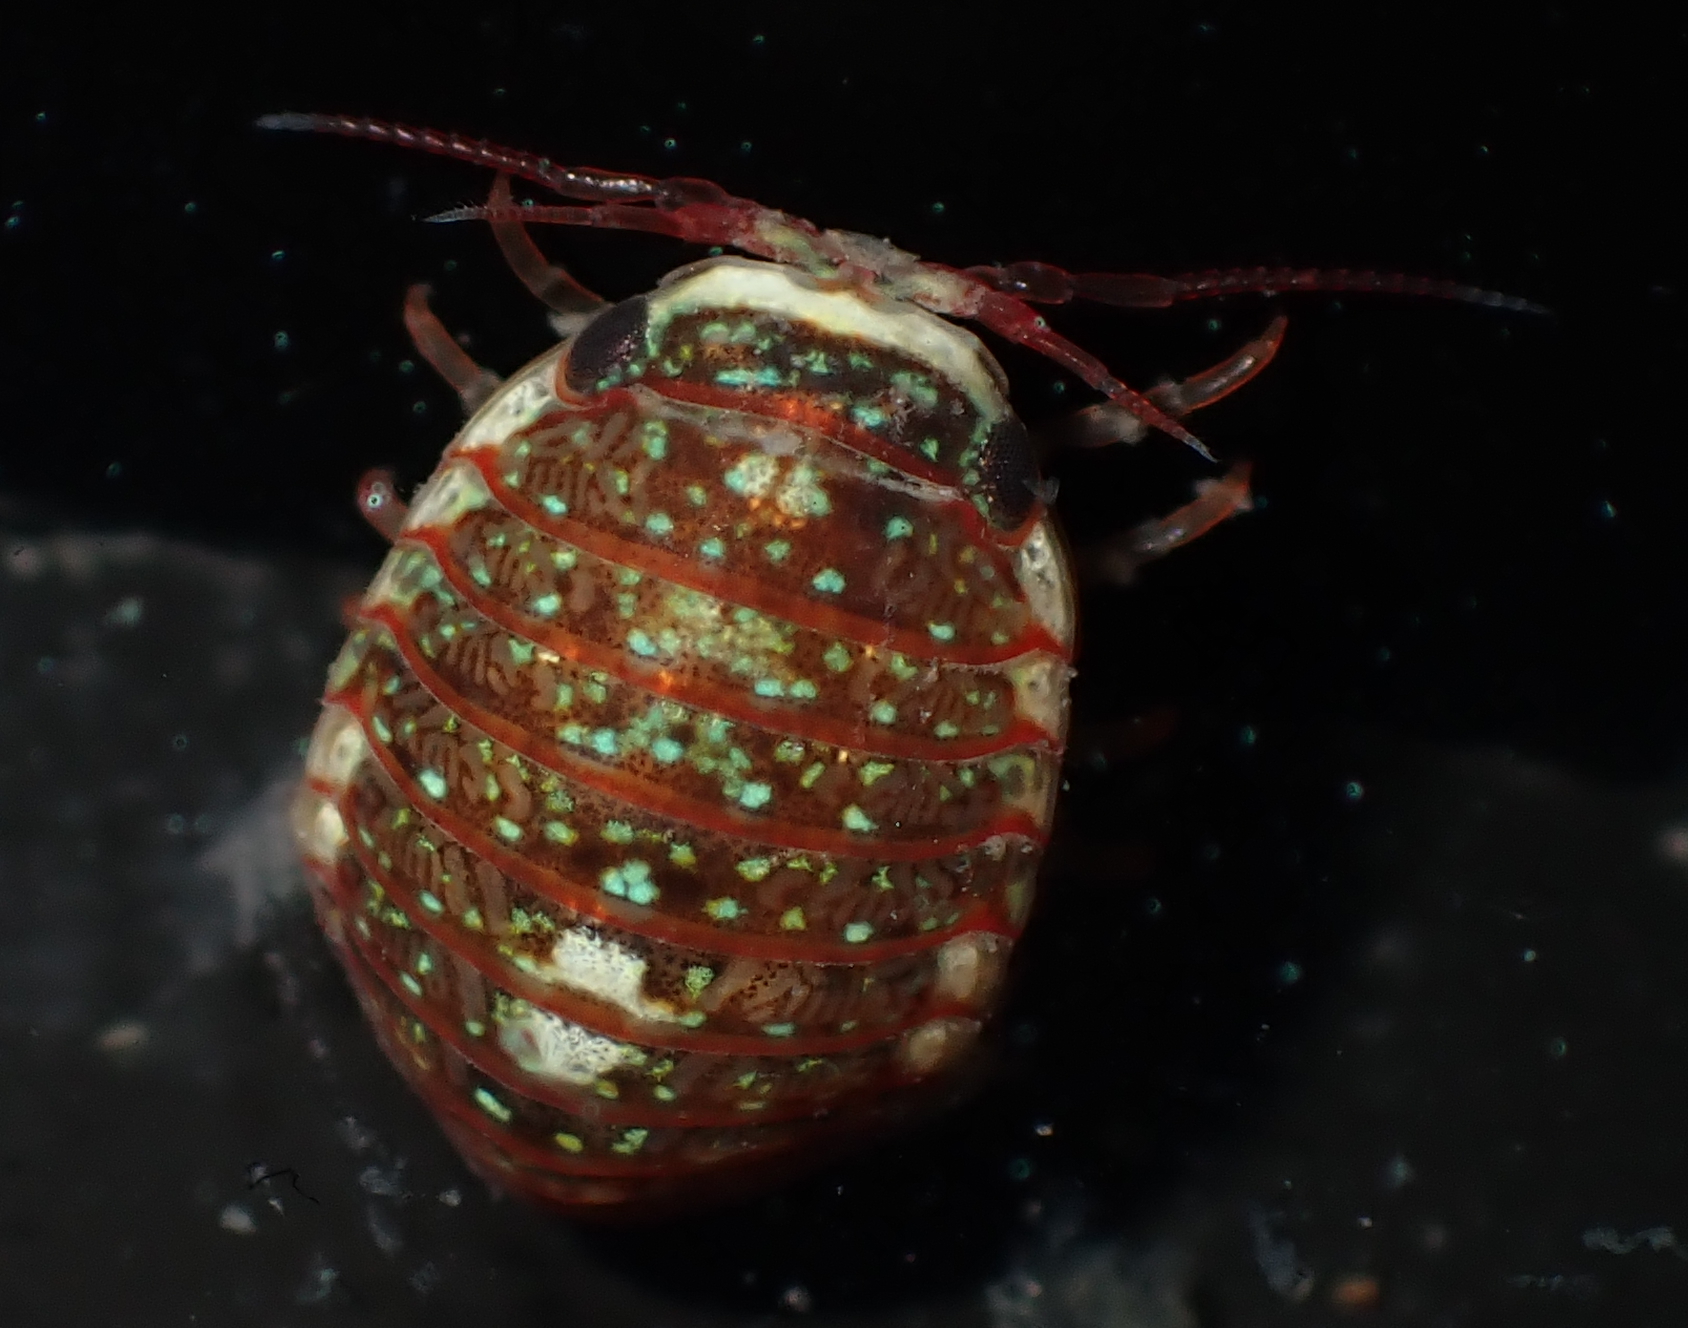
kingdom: Animalia
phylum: Arthropoda
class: Malacostraca
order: Isopoda
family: Sphaeromatidae
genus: Exosphaeroma
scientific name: Exosphaeroma echinensis
